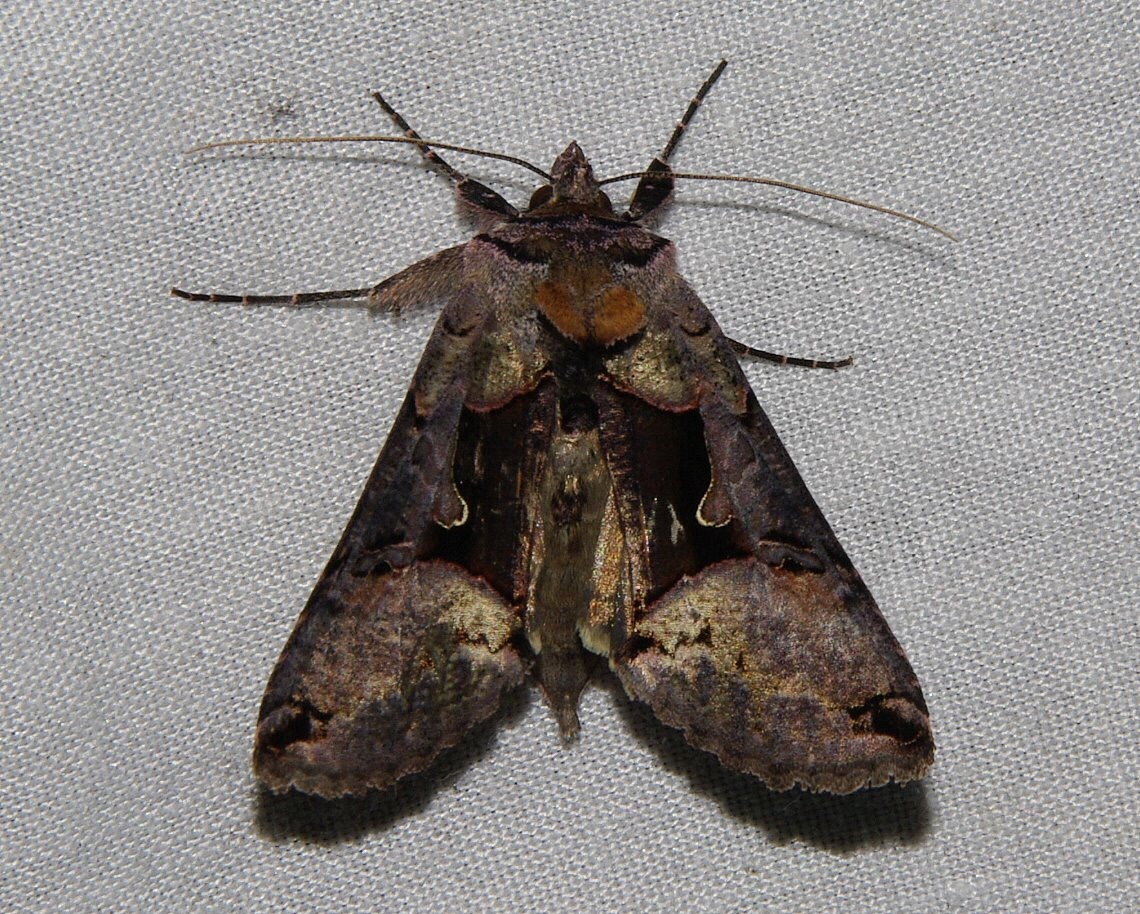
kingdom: Animalia
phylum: Arthropoda
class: Insecta
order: Lepidoptera
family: Noctuidae
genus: Autographa
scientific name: Autographa ampla
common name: Large looper moth
